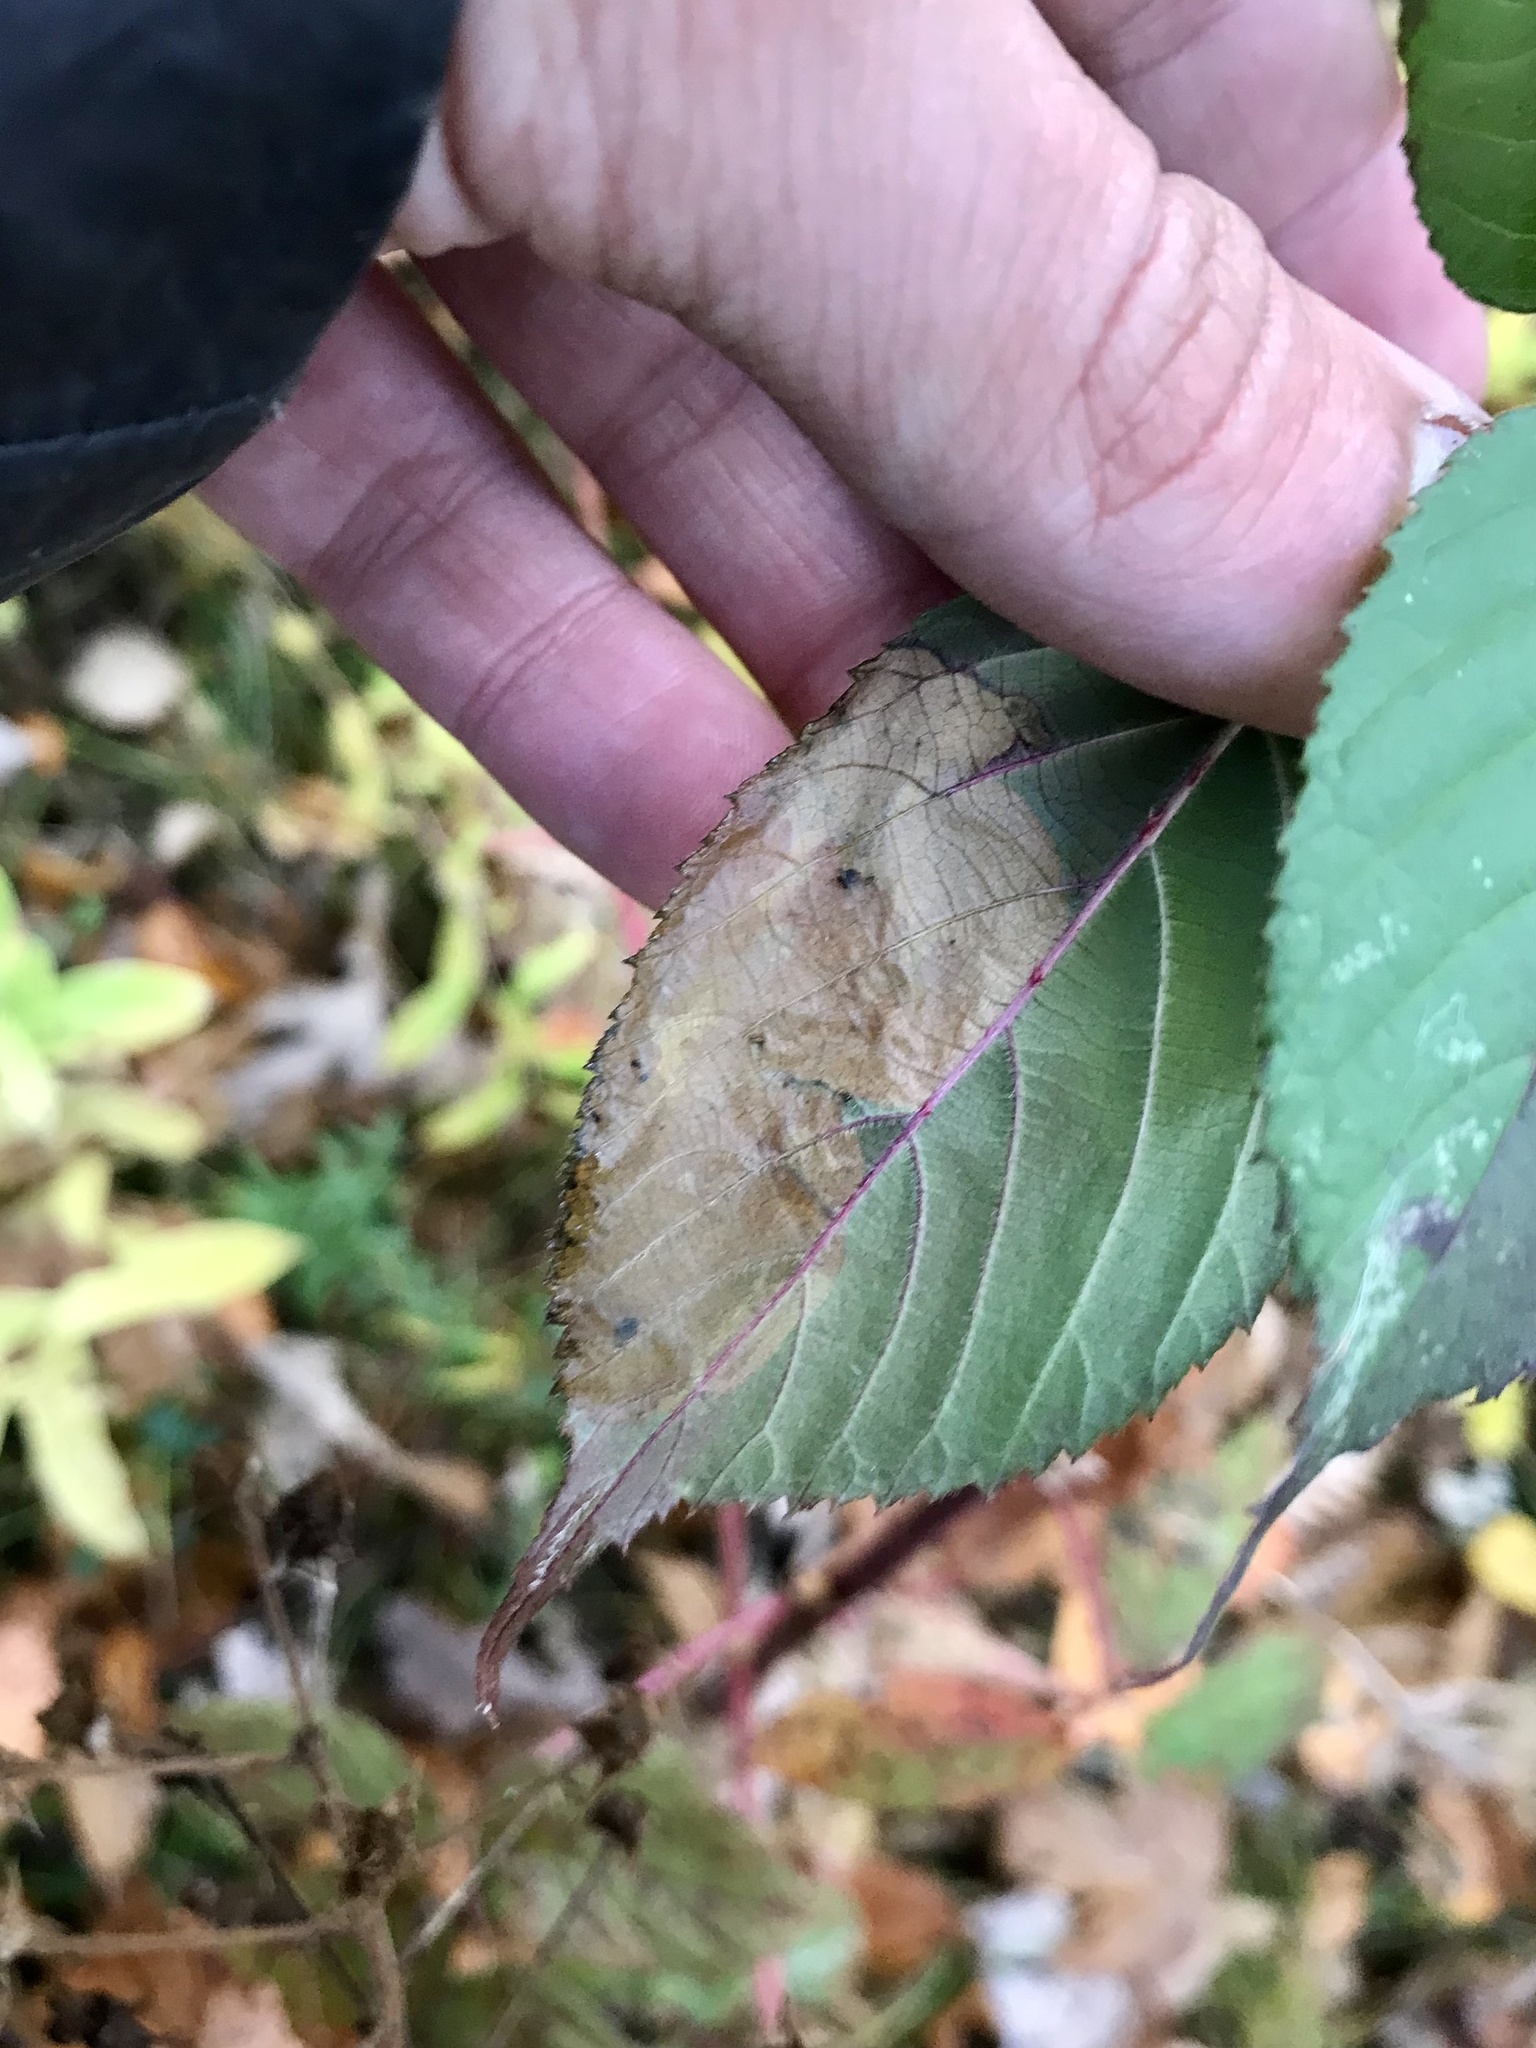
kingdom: Animalia
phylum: Arthropoda
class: Insecta
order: Hymenoptera
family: Tenthredinidae
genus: Metallus
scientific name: Metallus rohweri
